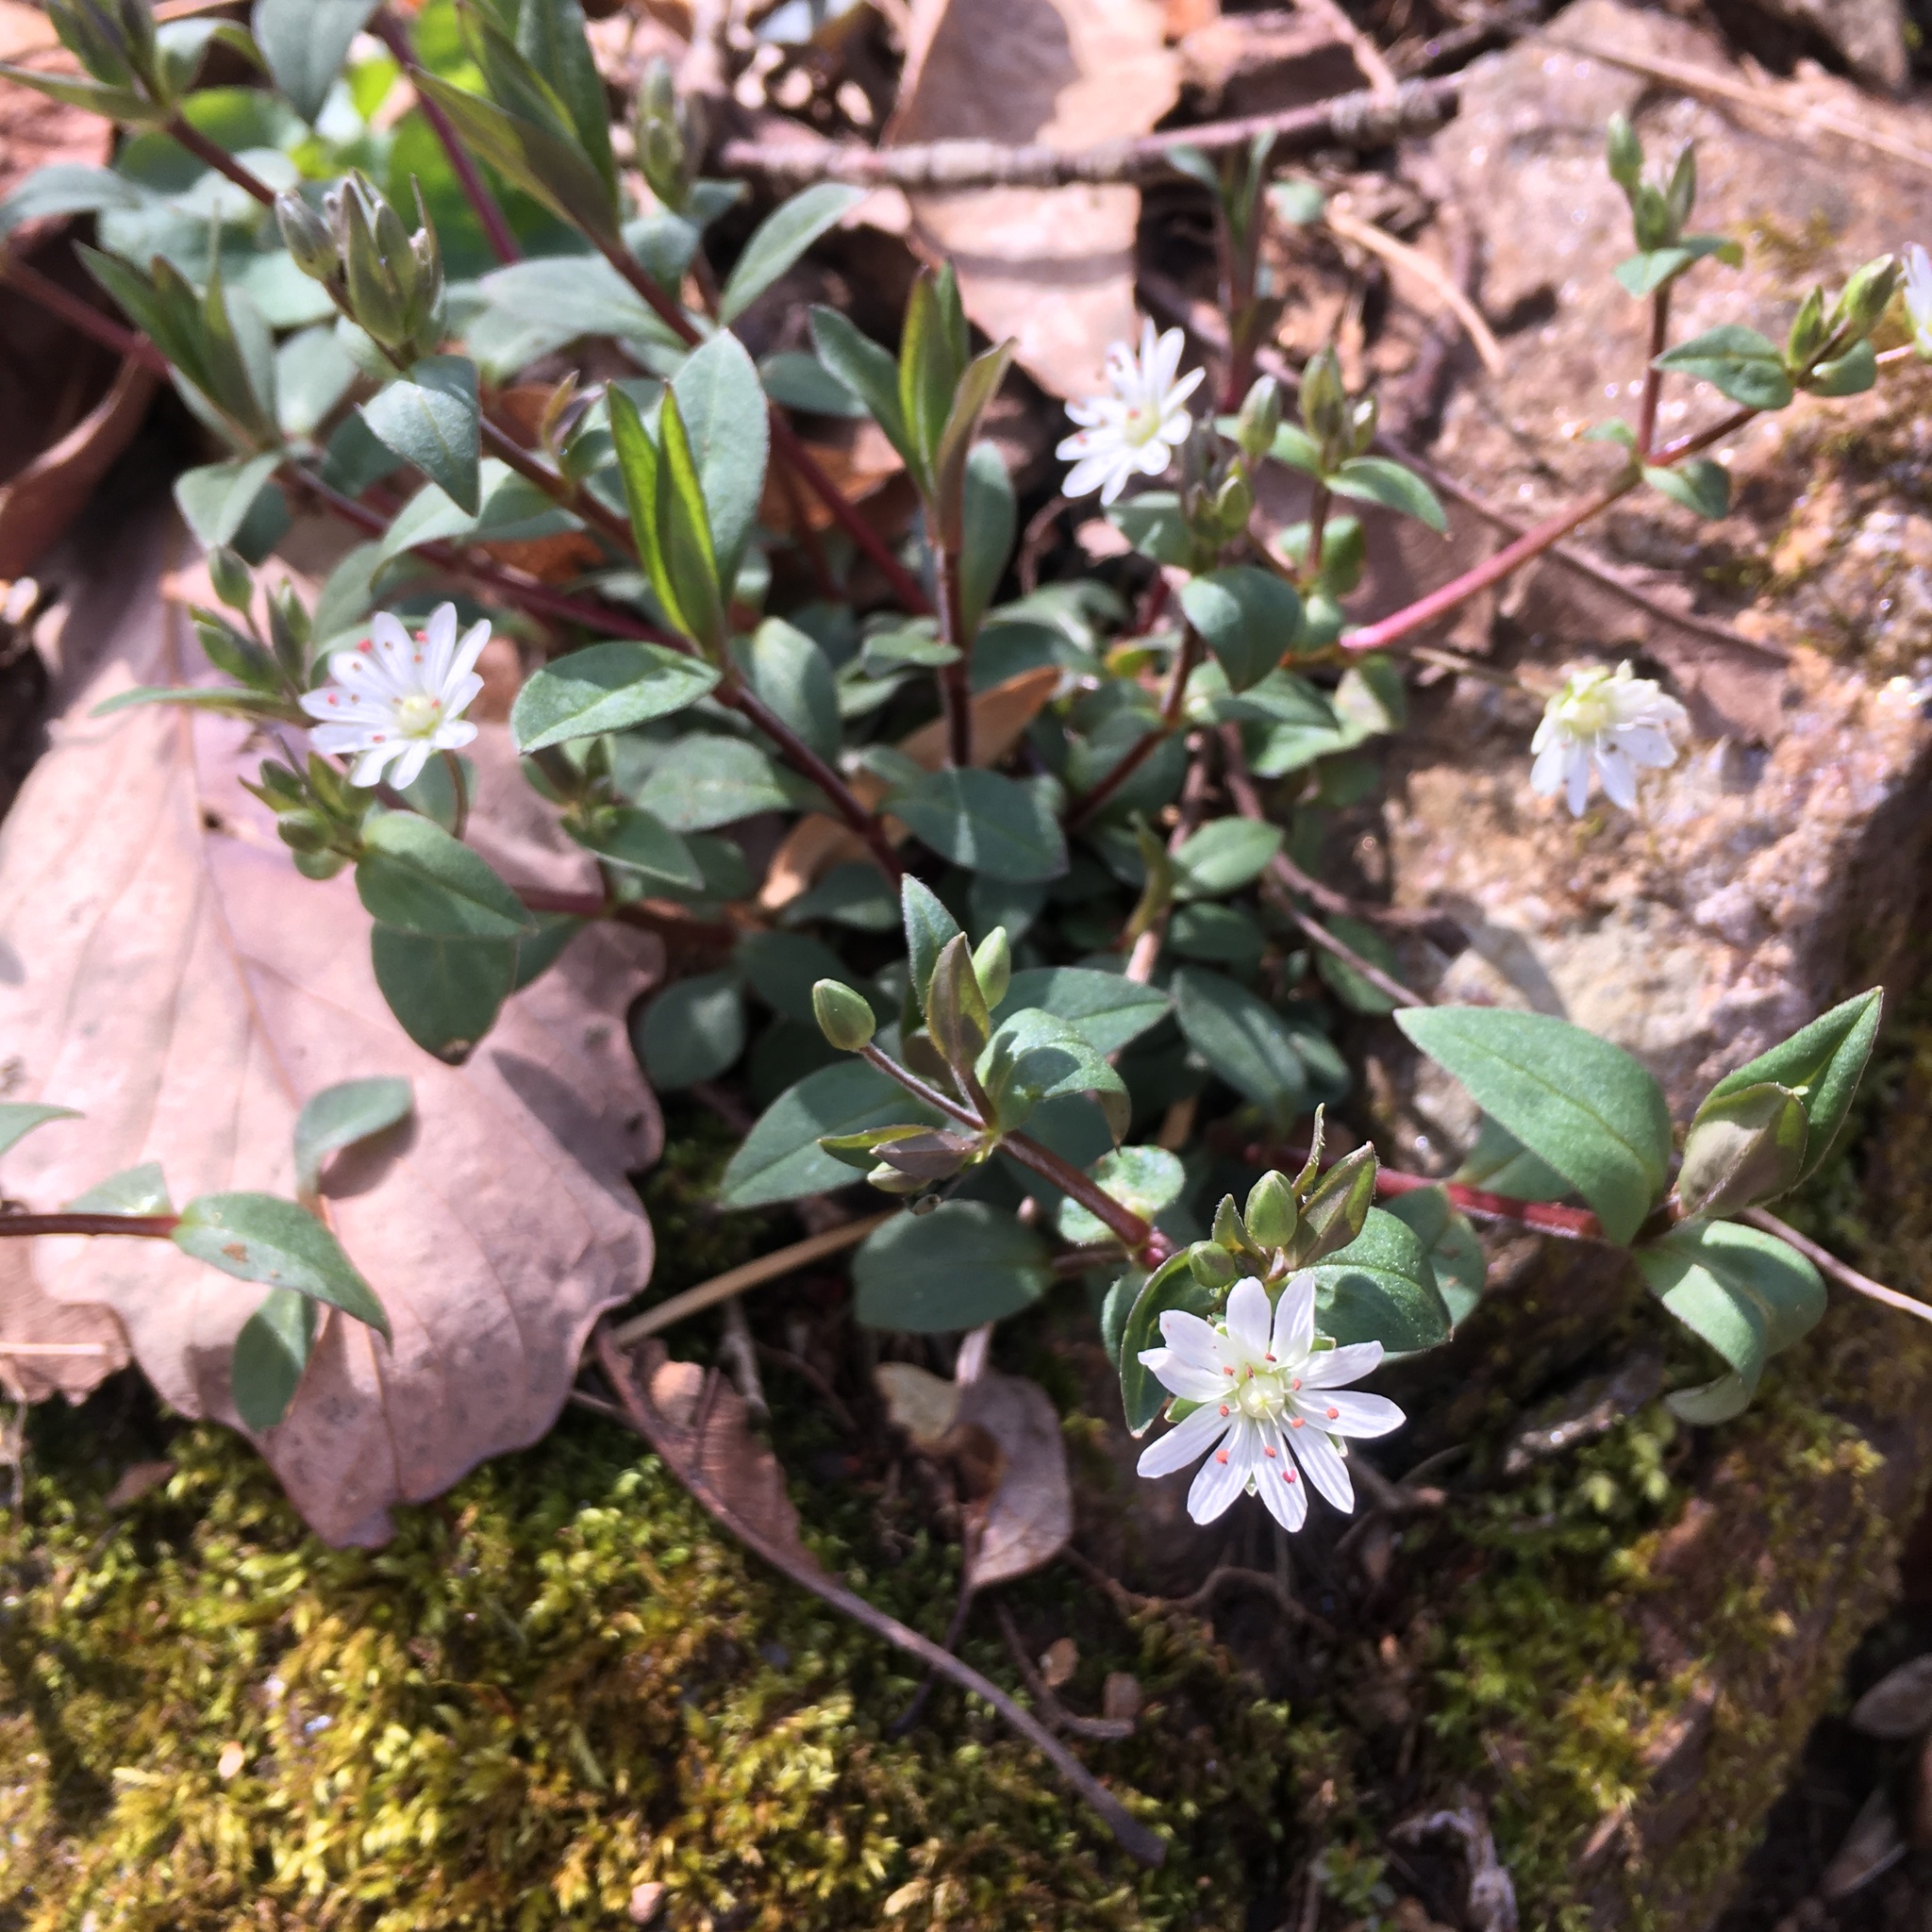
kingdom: Plantae
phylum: Tracheophyta
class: Magnoliopsida
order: Caryophyllales
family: Caryophyllaceae
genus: Stellaria
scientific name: Stellaria pubera
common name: Star chickweed
